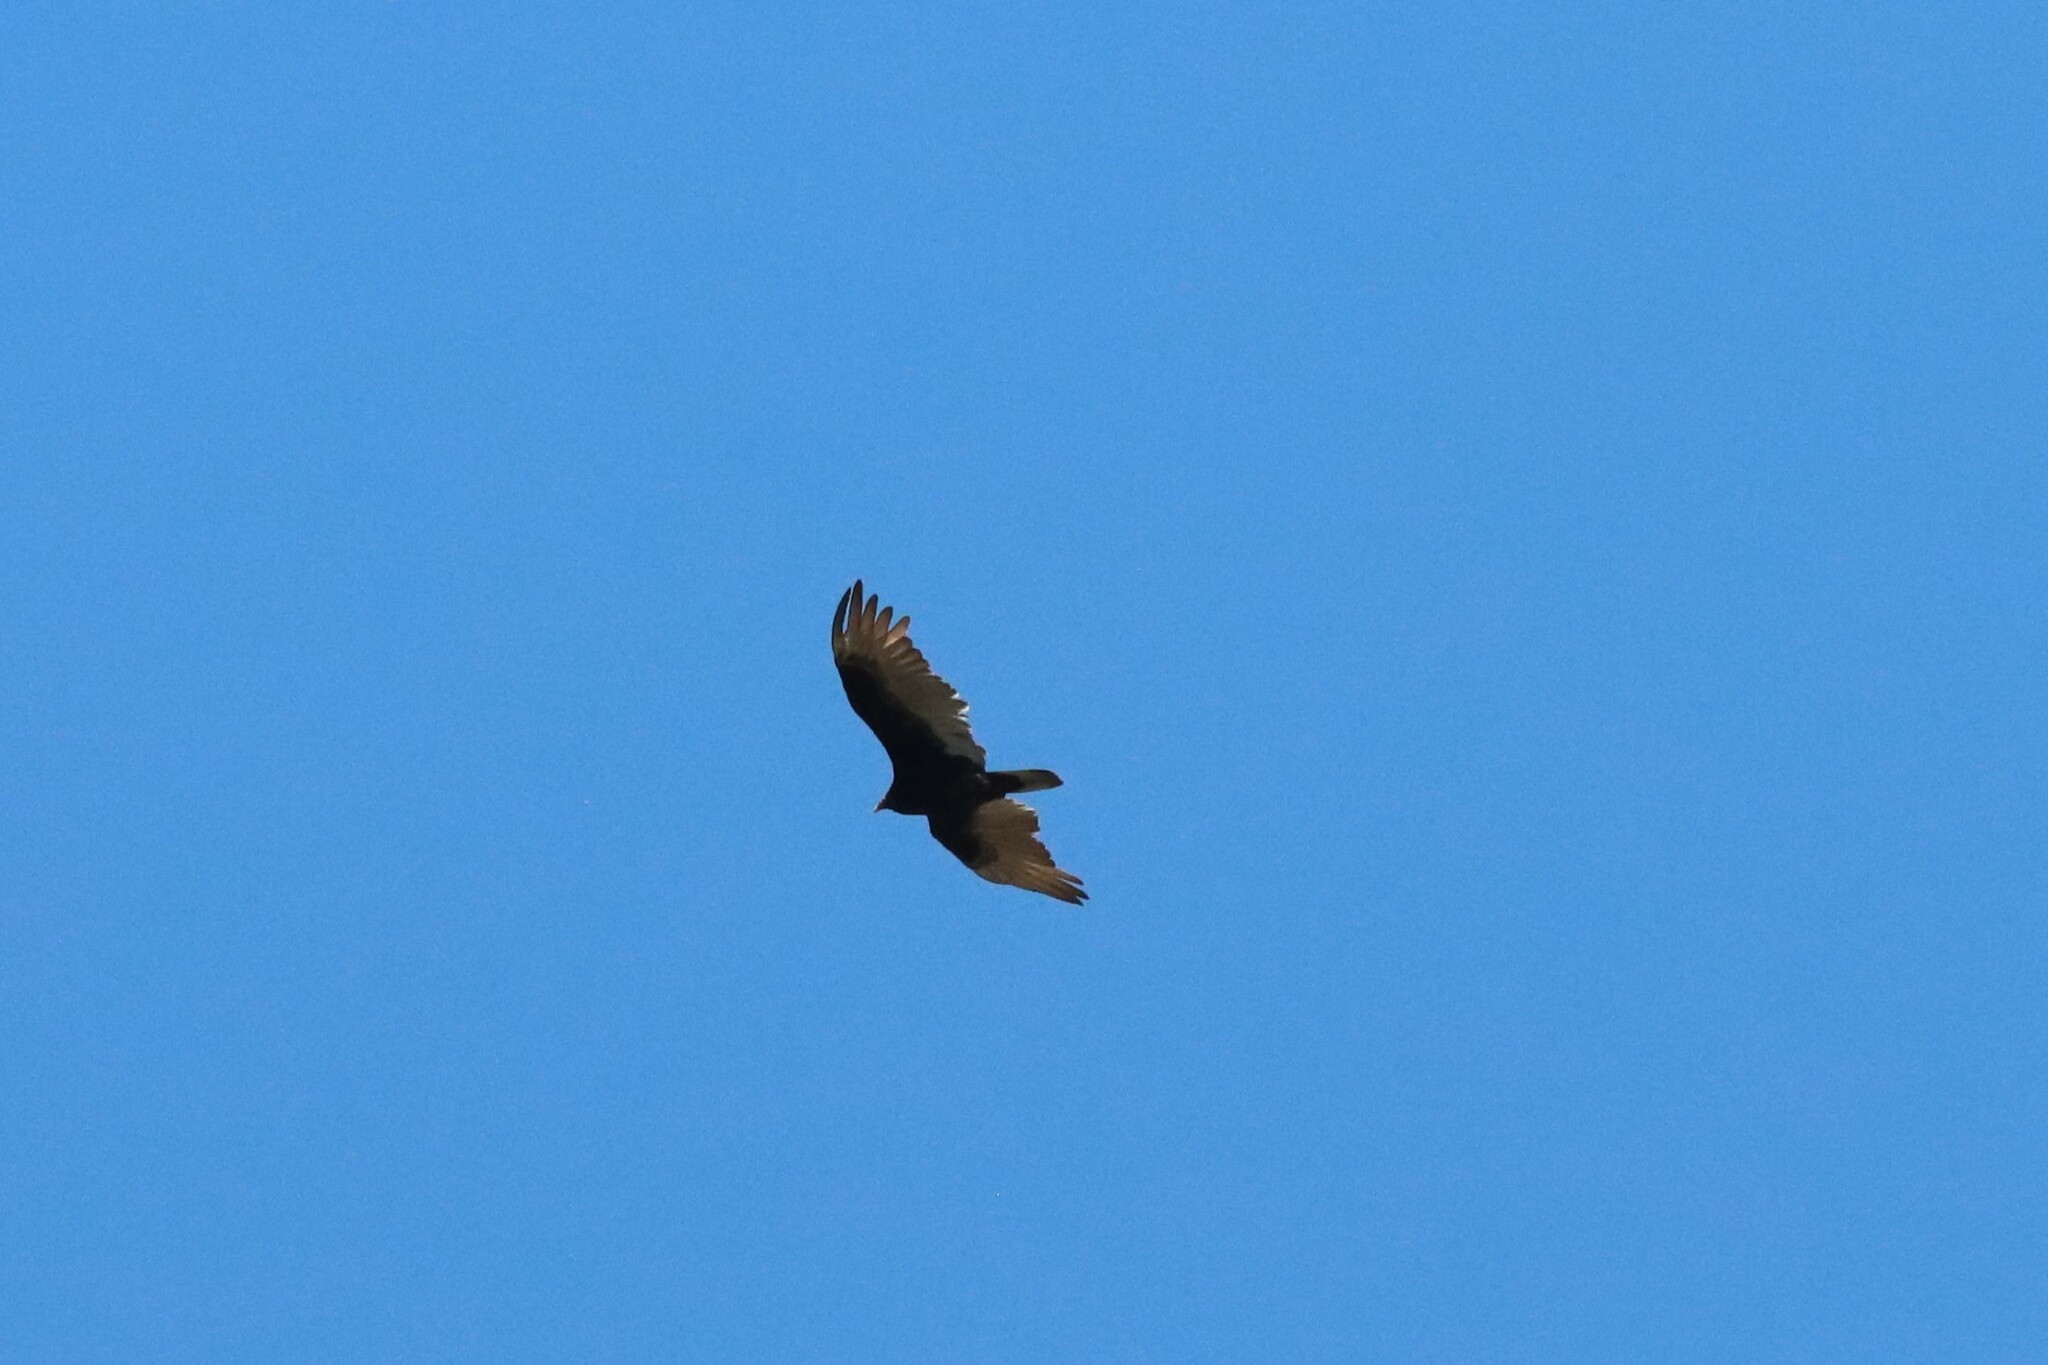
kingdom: Animalia
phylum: Chordata
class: Aves
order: Accipitriformes
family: Cathartidae
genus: Cathartes
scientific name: Cathartes aura
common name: Turkey vulture
